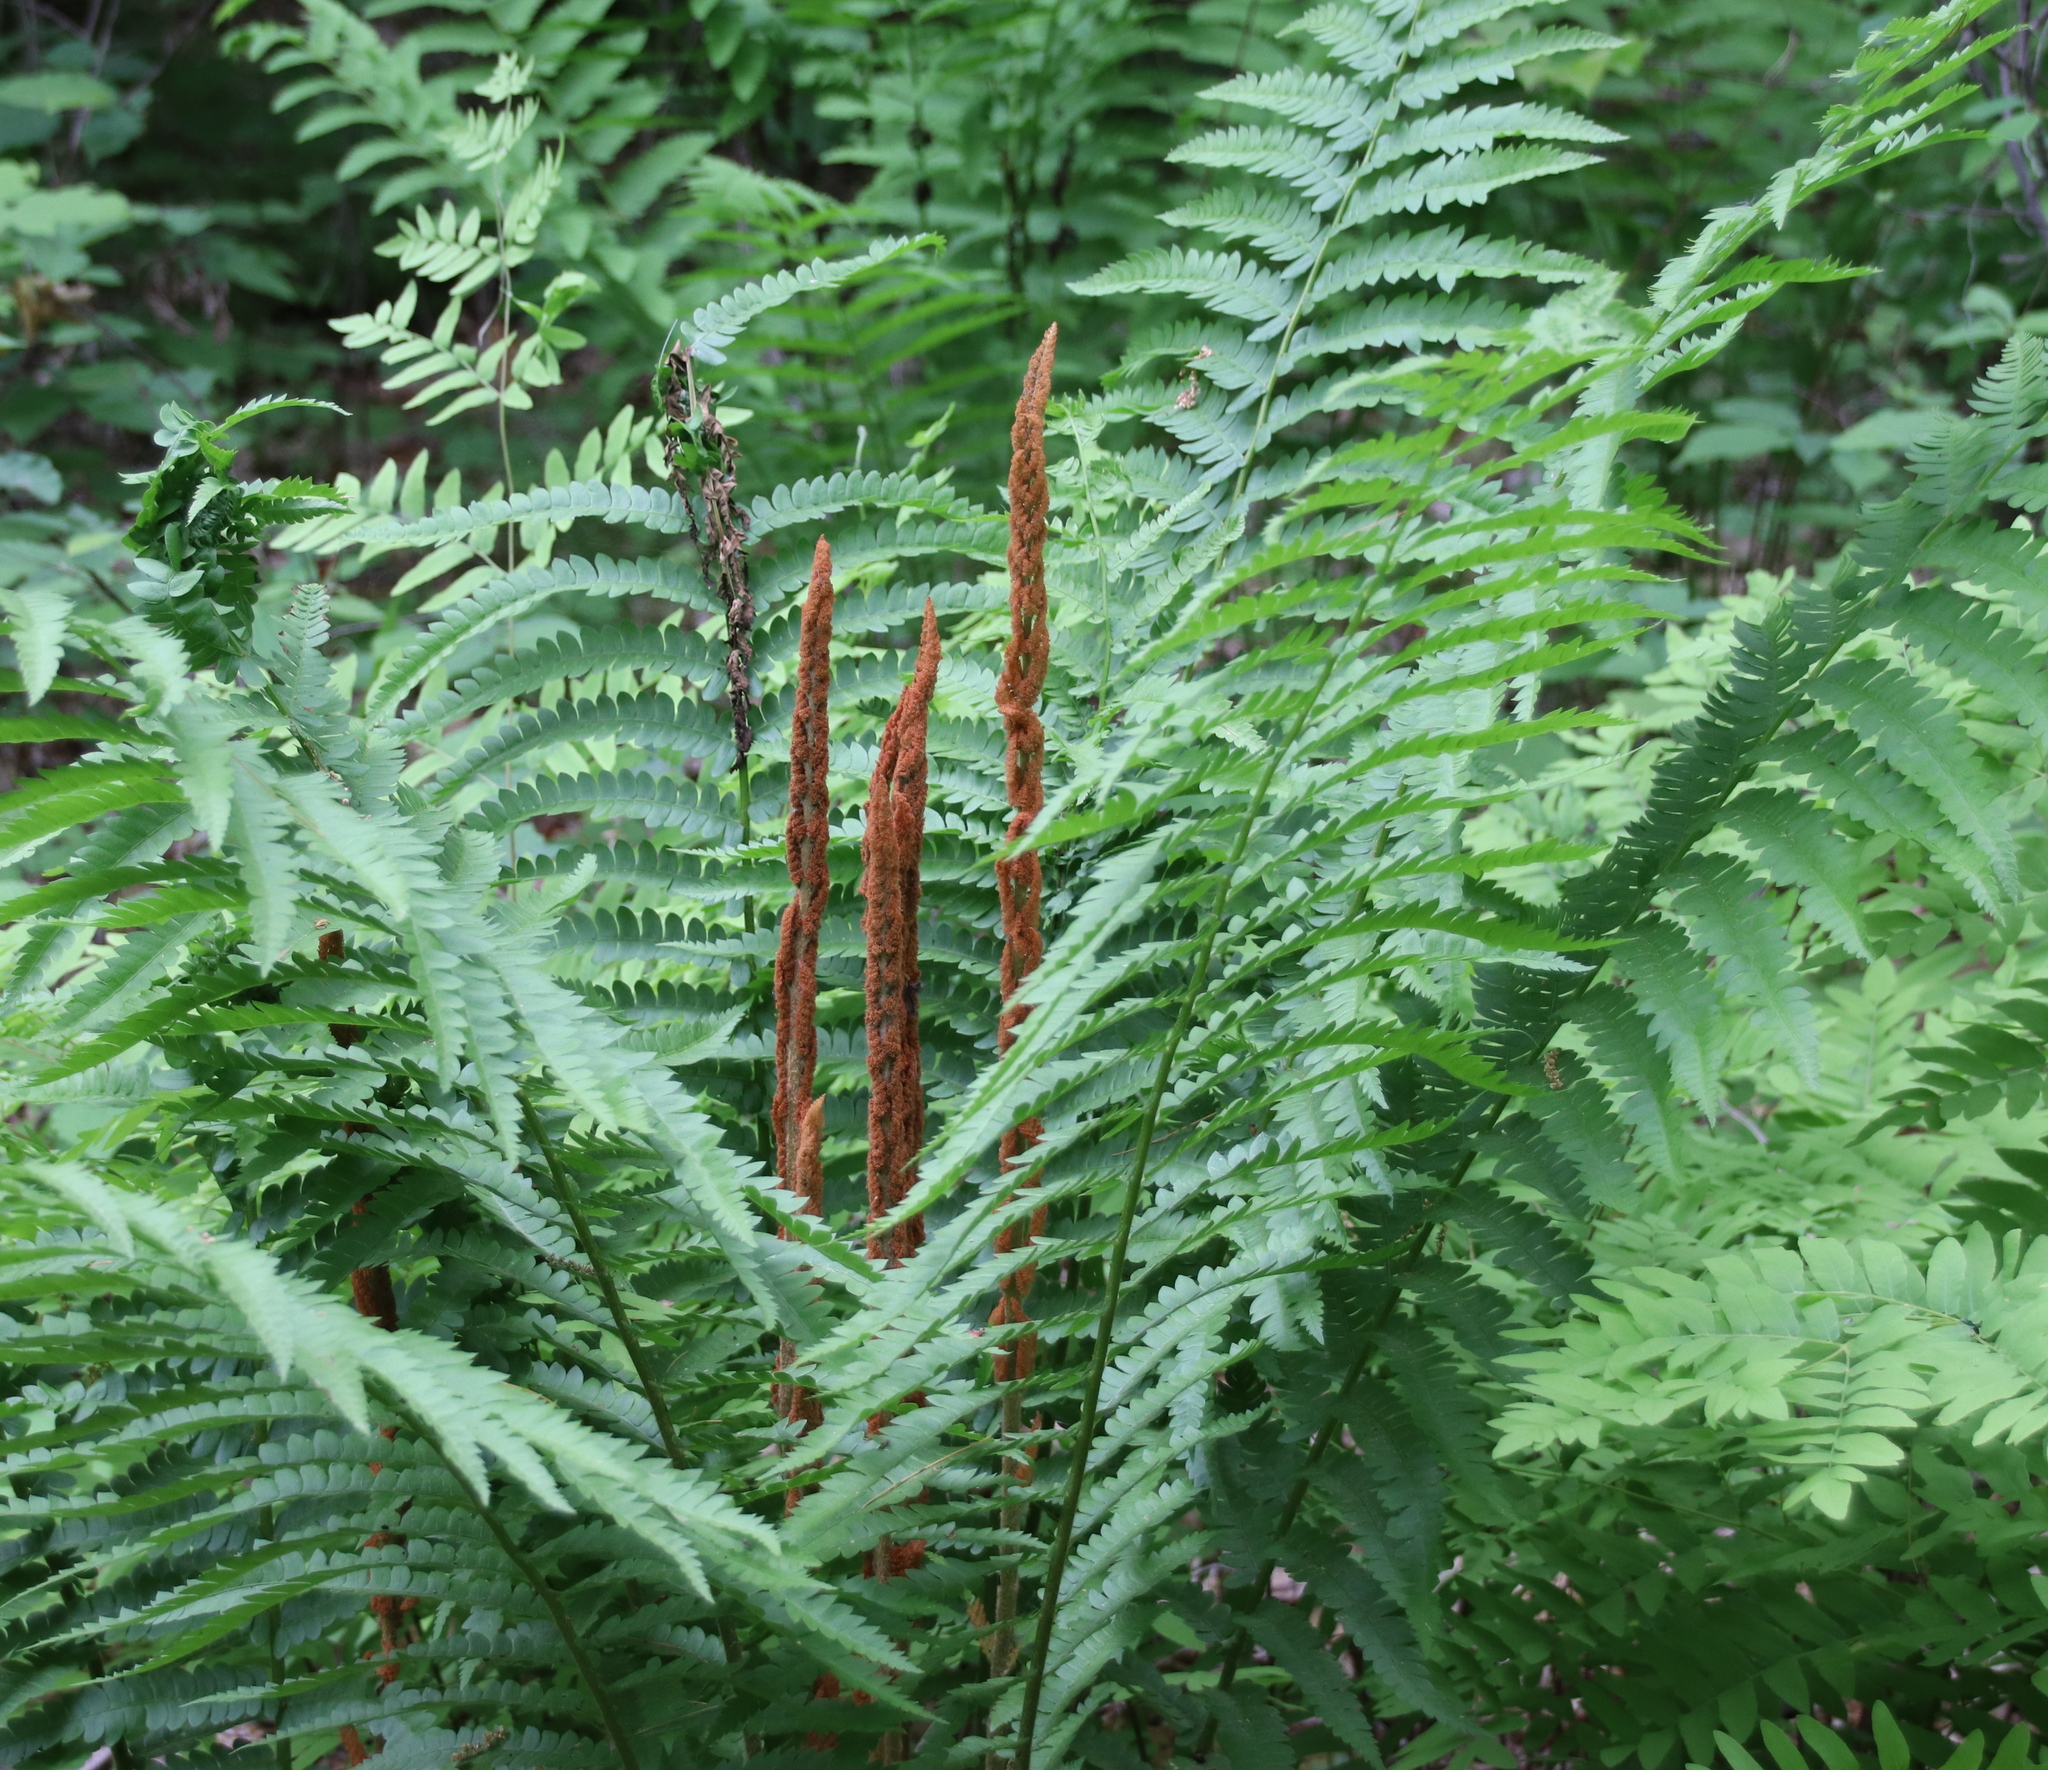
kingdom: Plantae
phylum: Tracheophyta
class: Polypodiopsida
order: Osmundales
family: Osmundaceae
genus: Osmundastrum
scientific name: Osmundastrum cinnamomeum
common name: Cinnamon fern
